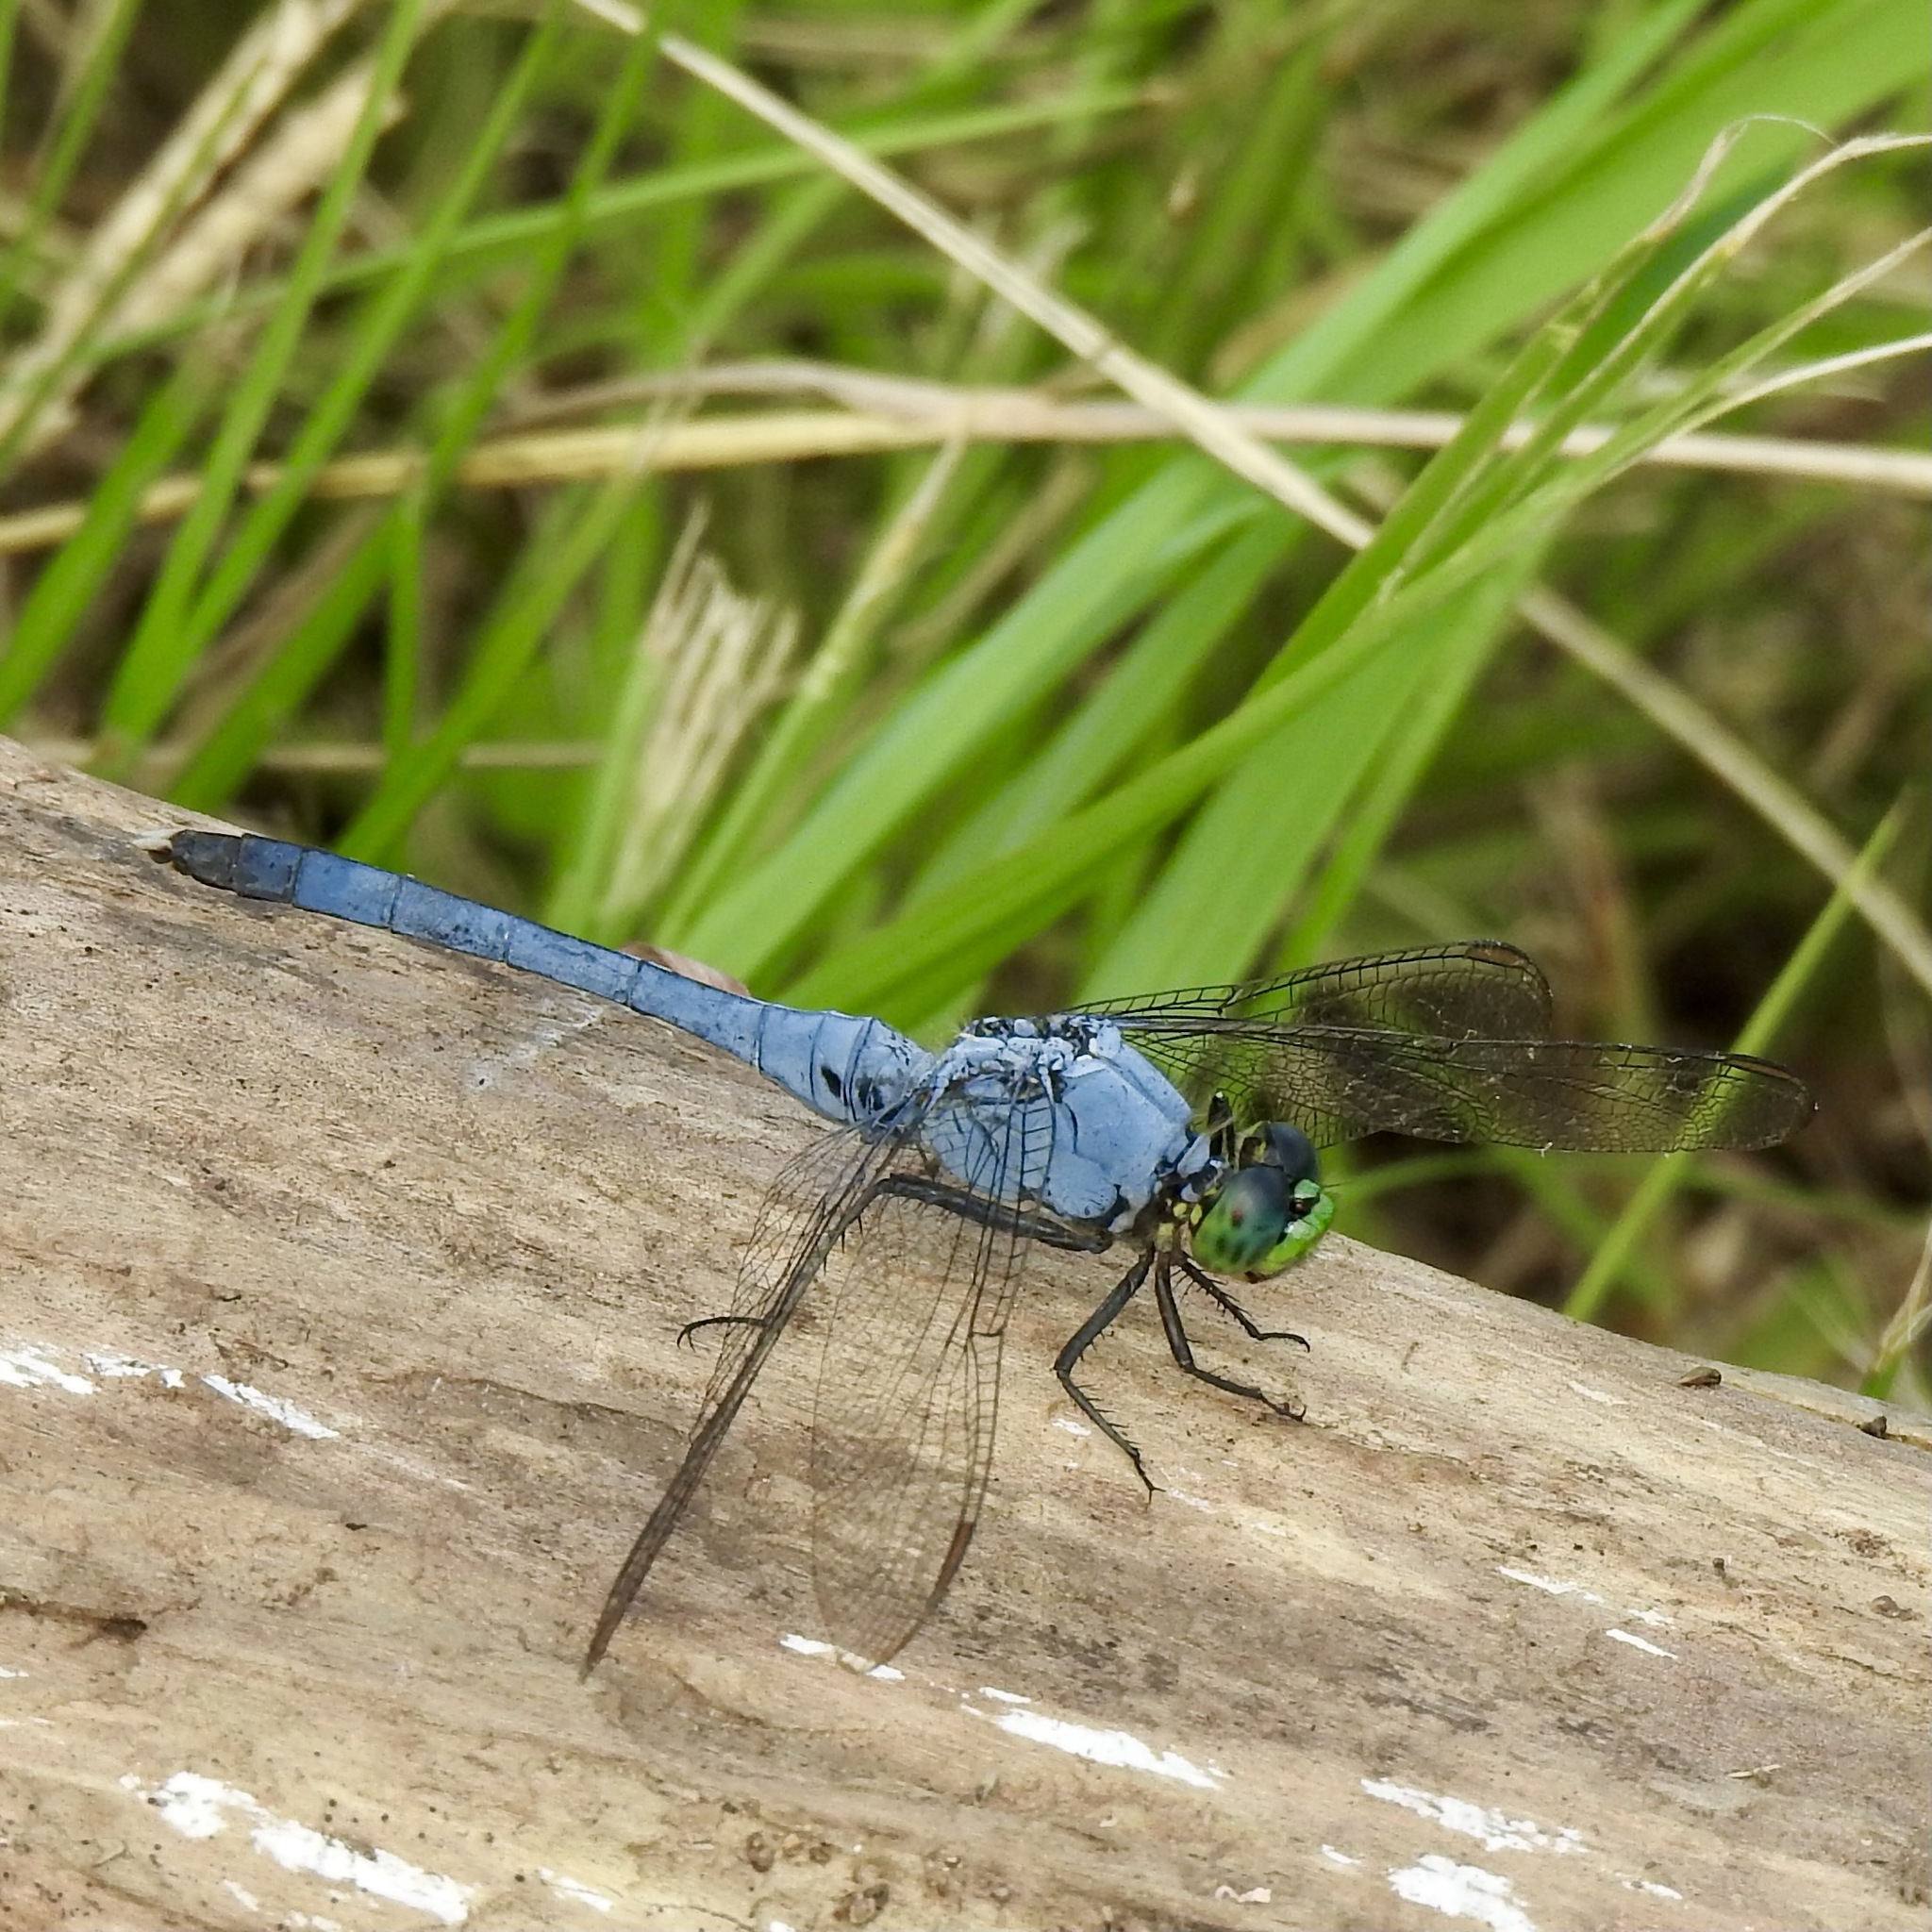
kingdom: Animalia
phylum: Arthropoda
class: Insecta
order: Odonata
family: Libellulidae
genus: Erythemis
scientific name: Erythemis simplicicollis
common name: Eastern pondhawk
